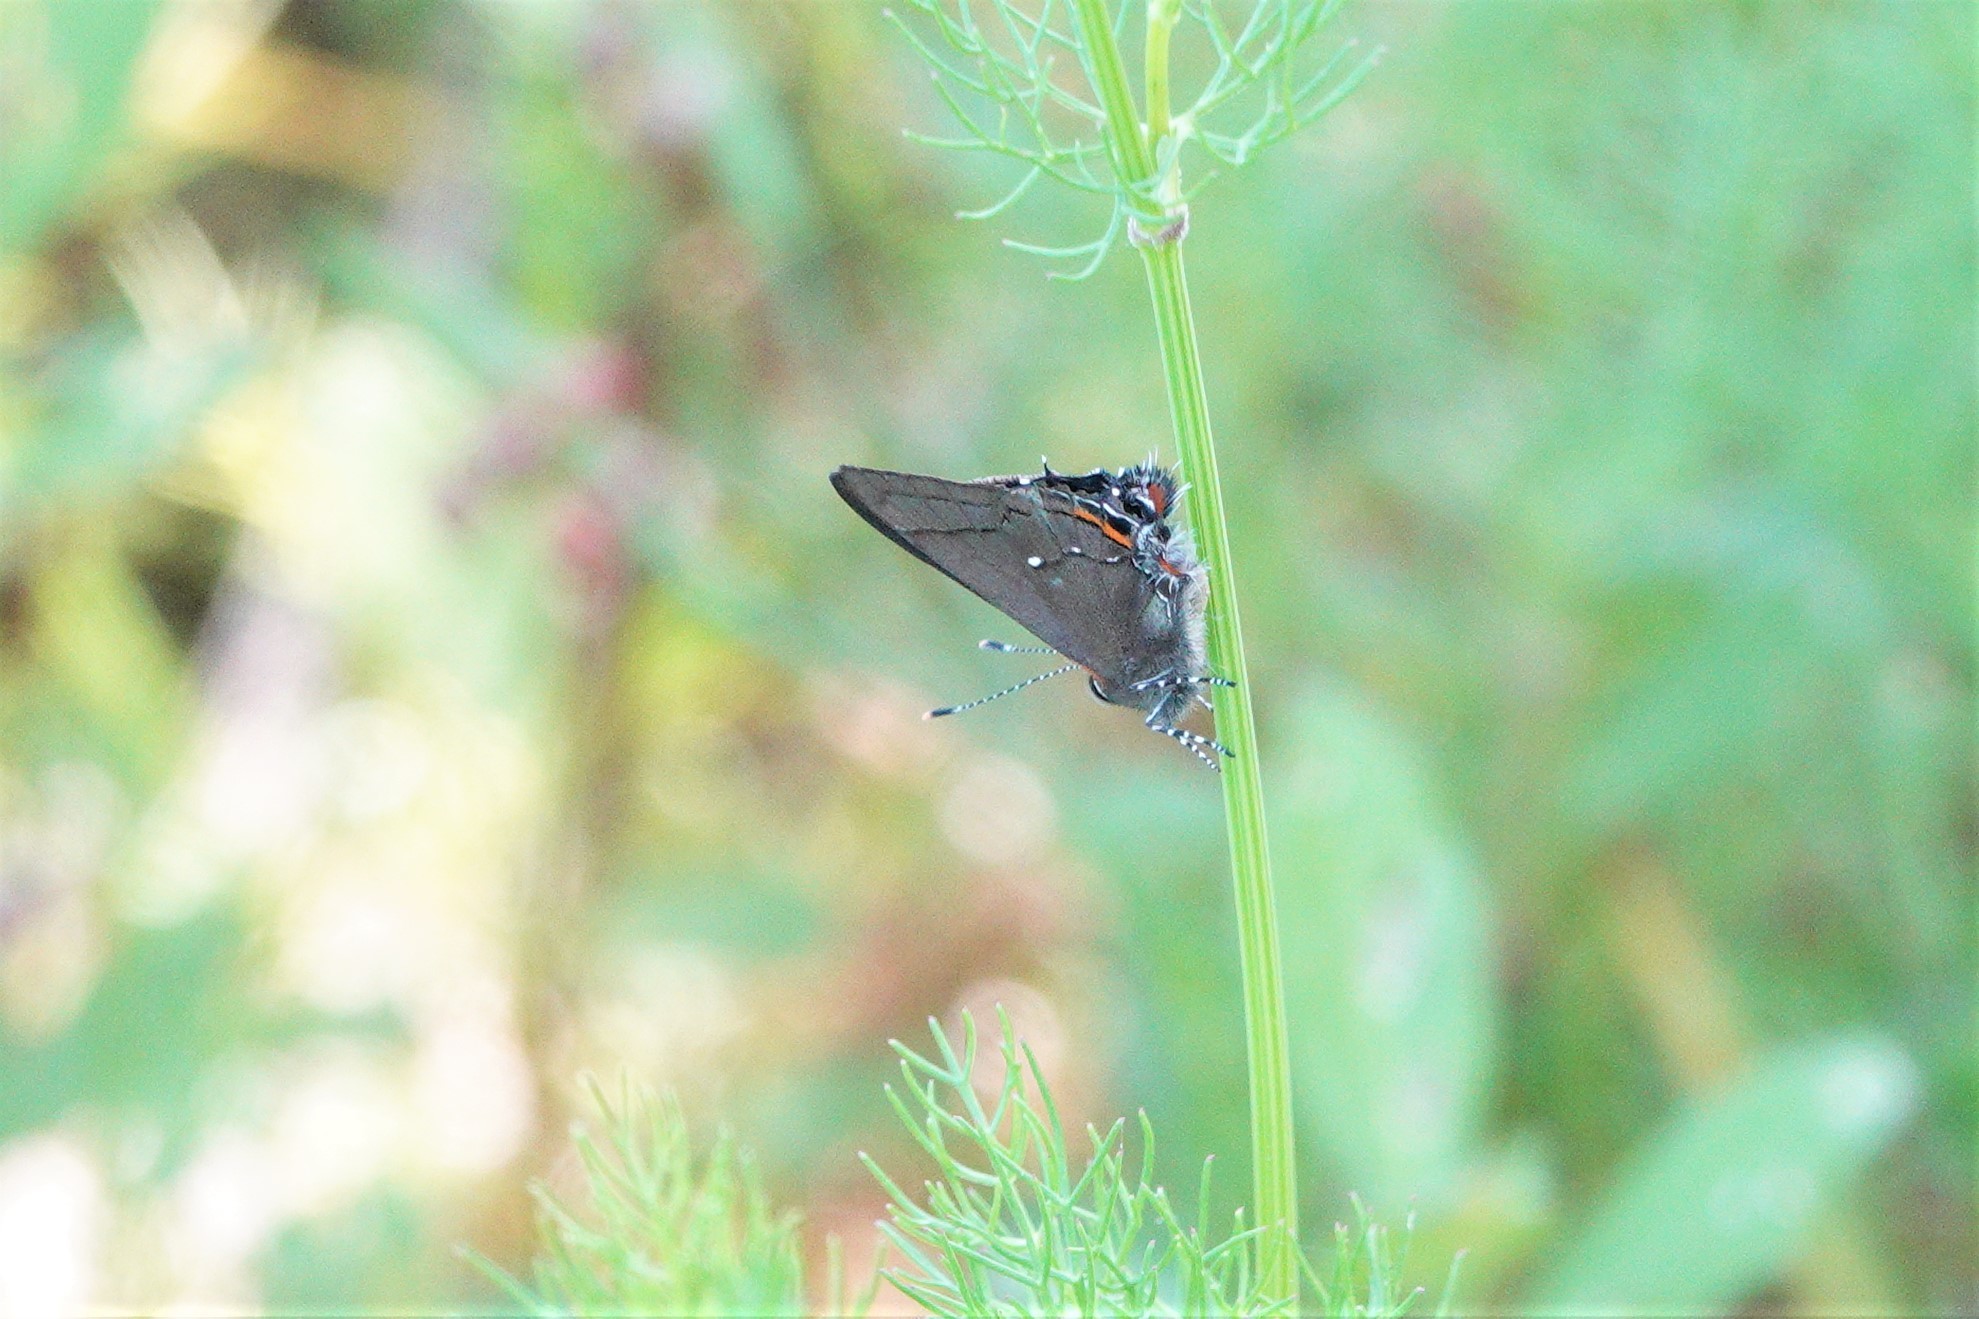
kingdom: Animalia
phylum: Arthropoda
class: Insecta
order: Lepidoptera
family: Lycaenidae
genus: Thecla
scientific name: Thecla angelia
